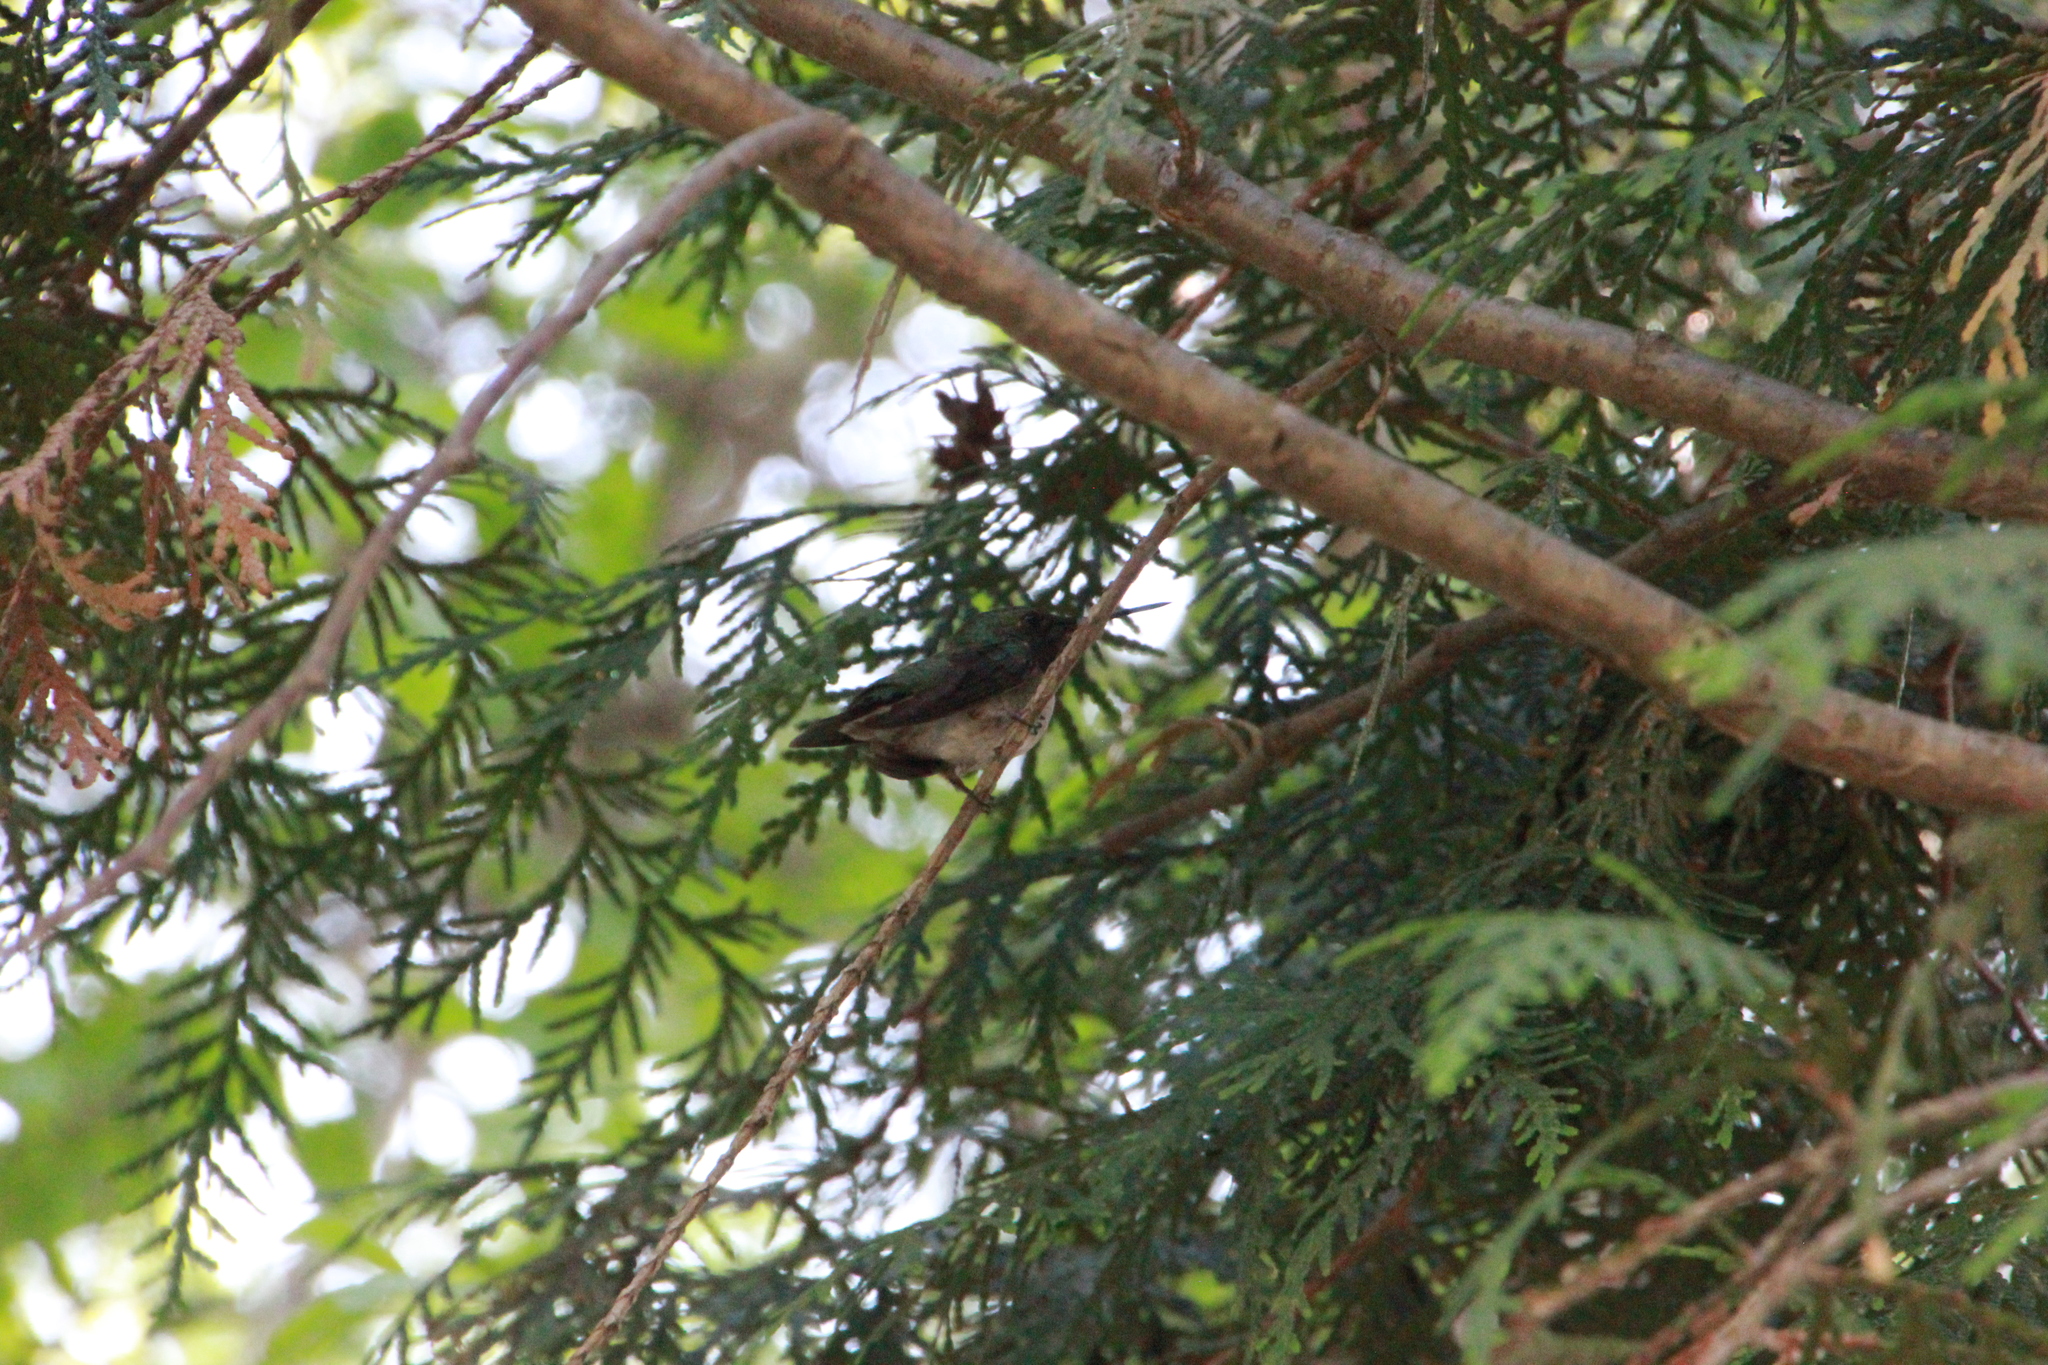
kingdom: Animalia
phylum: Chordata
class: Aves
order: Apodiformes
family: Trochilidae
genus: Archilochus
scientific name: Archilochus colubris
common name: Ruby-throated hummingbird
